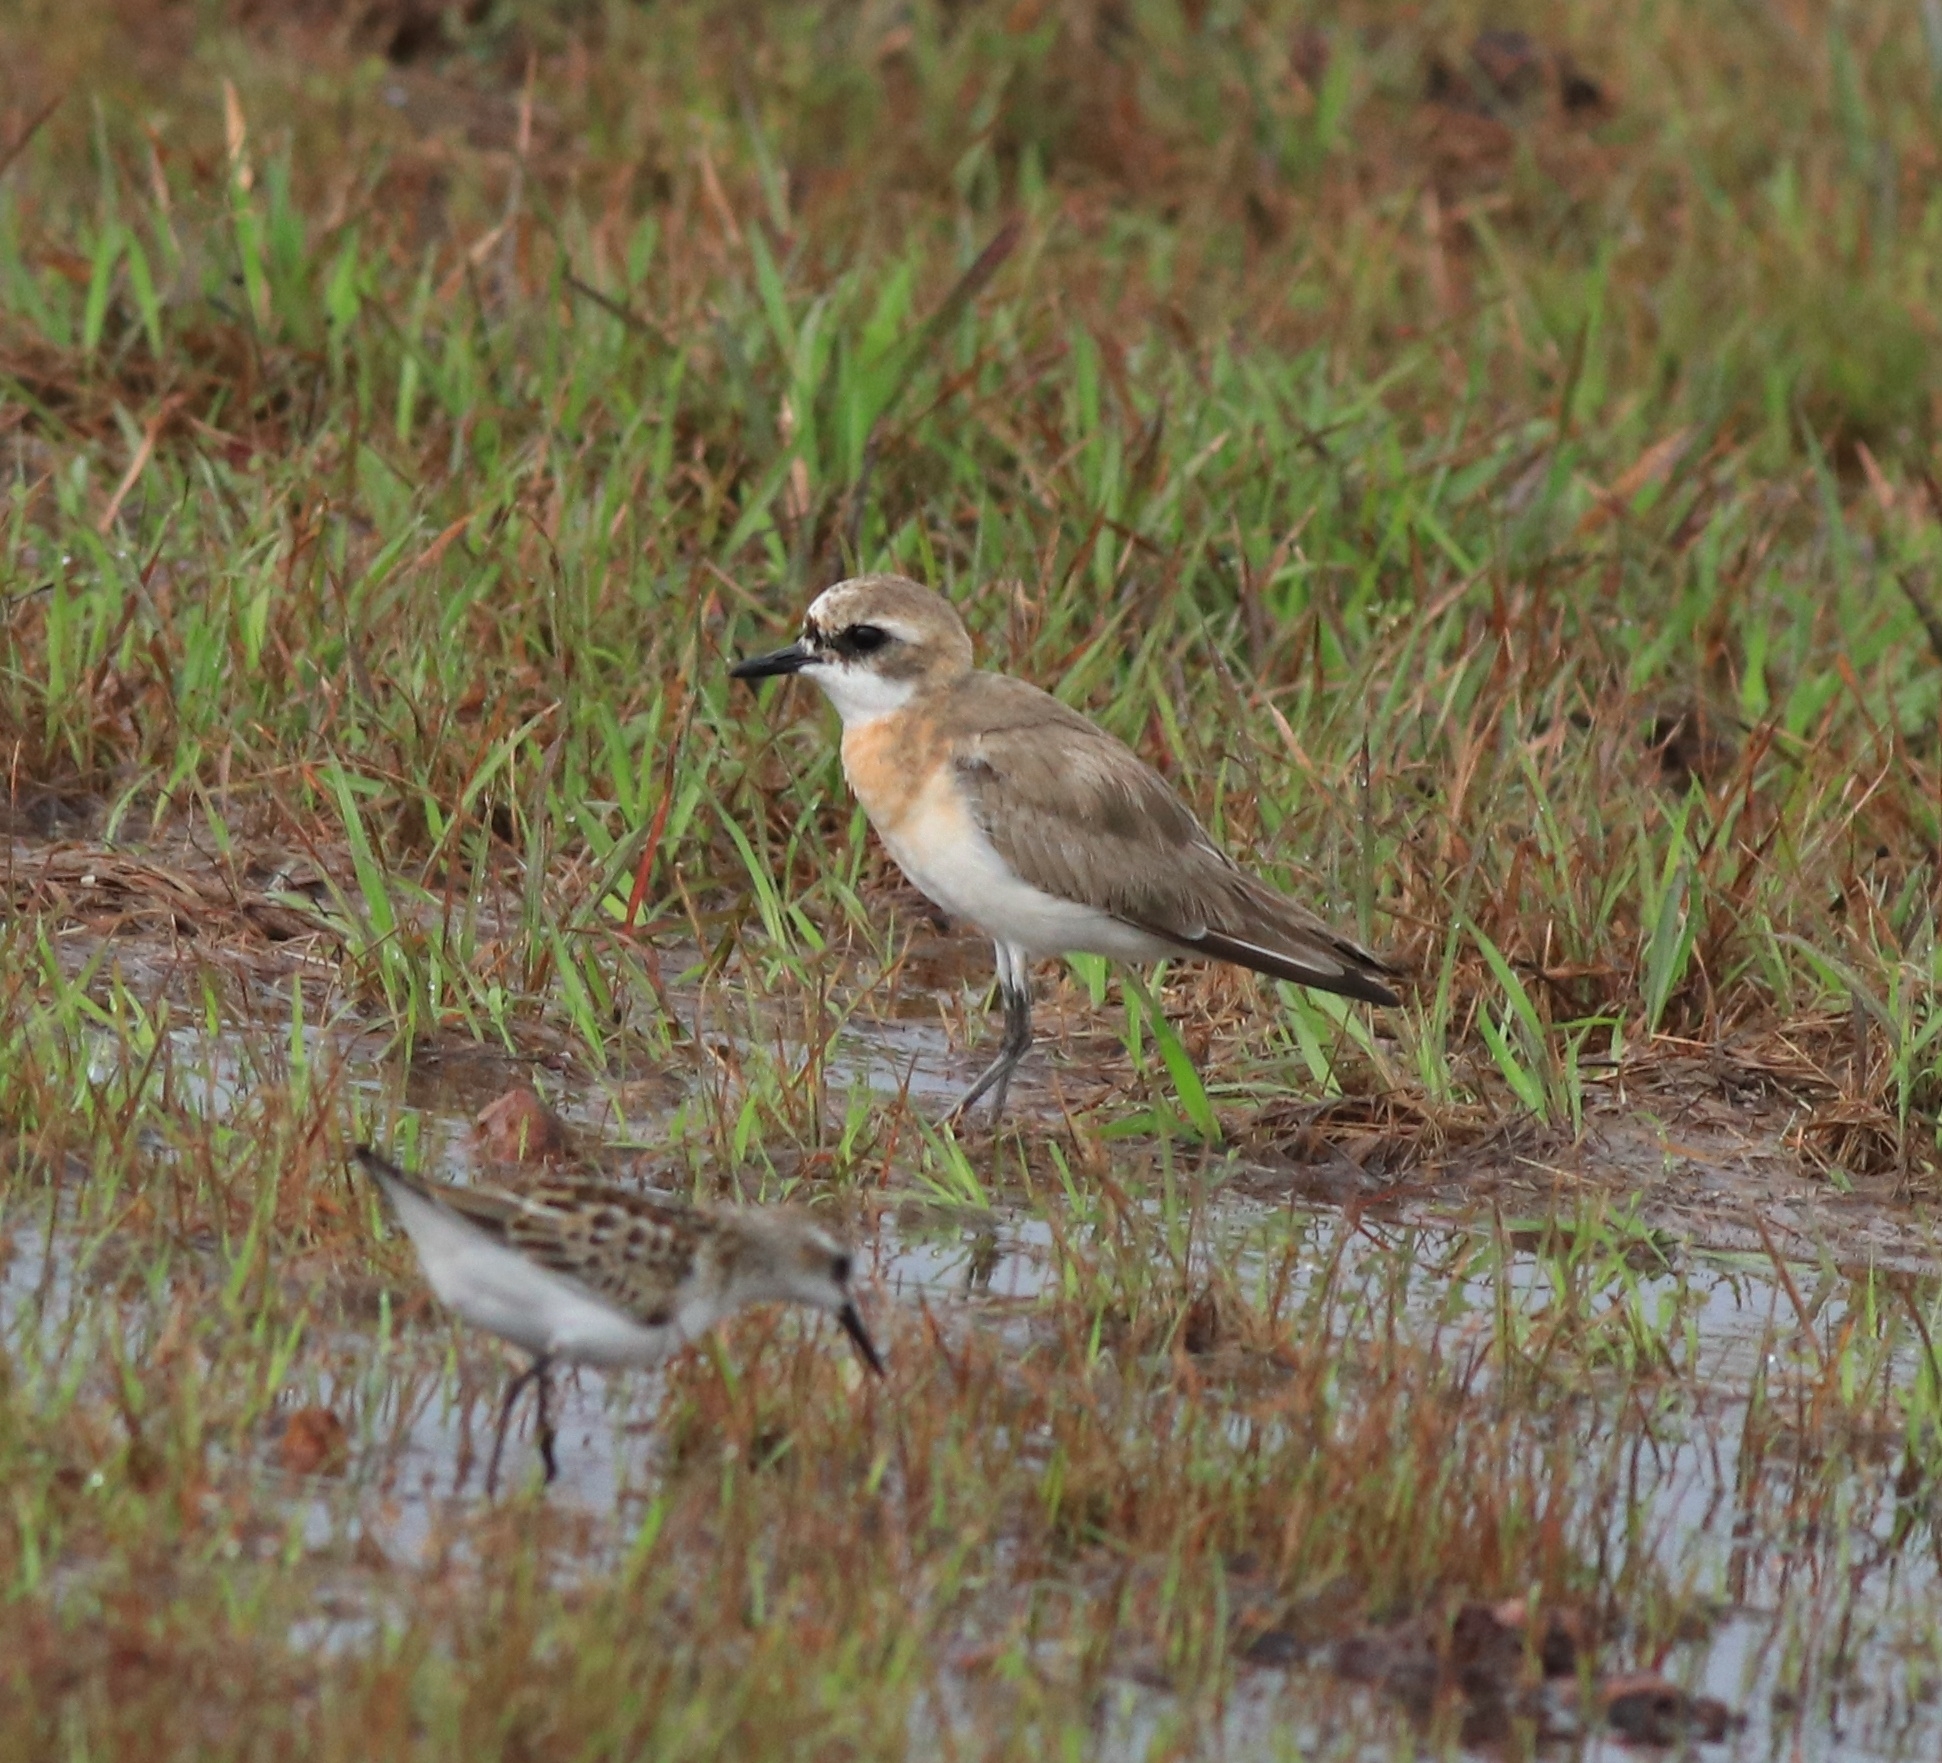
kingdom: Animalia
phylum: Chordata
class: Aves
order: Charadriiformes
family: Charadriidae
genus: Anarhynchus
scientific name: Anarhynchus
